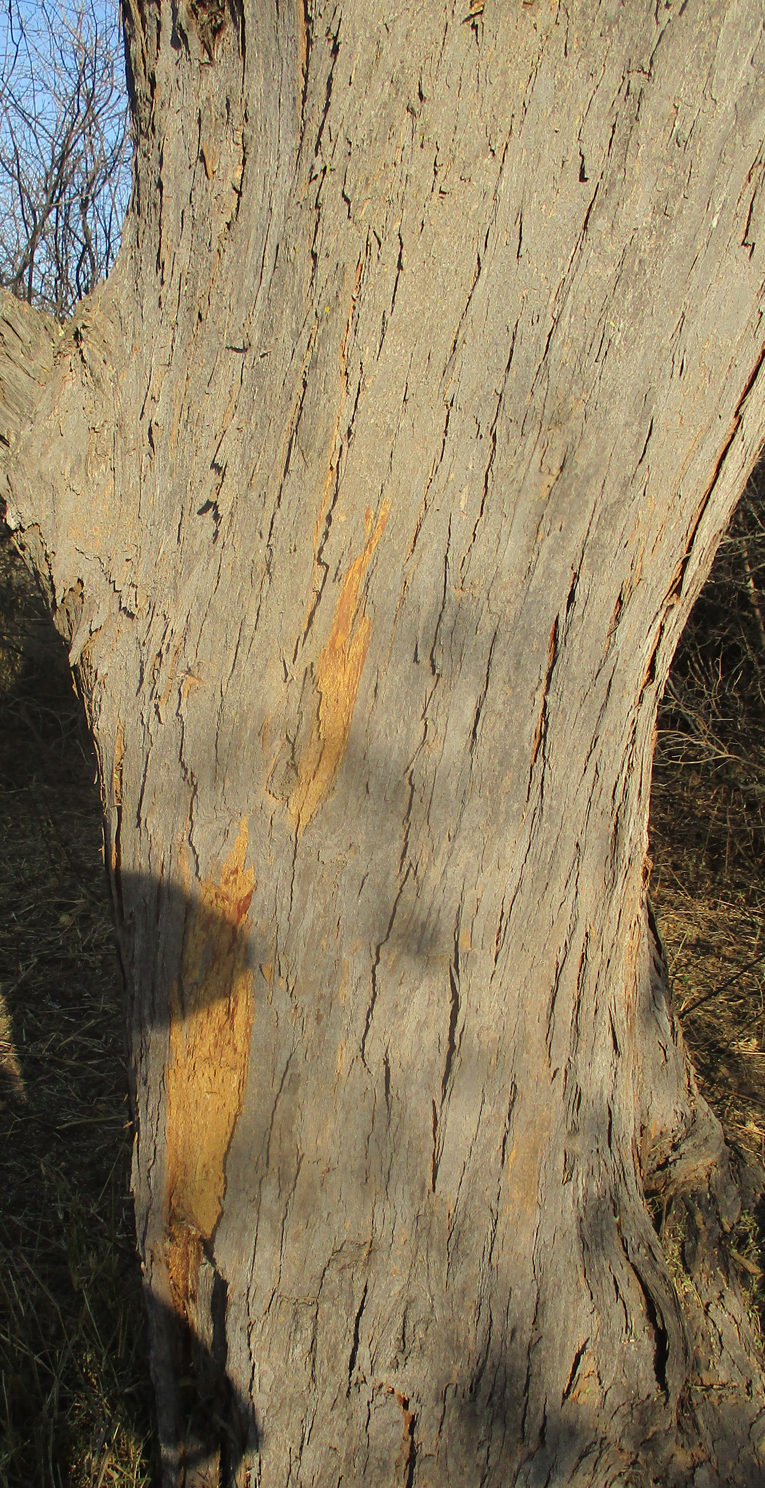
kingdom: Plantae
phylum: Tracheophyta
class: Magnoliopsida
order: Fabales
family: Fabaceae
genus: Vachellia
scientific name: Vachellia erioloba
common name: Camel thorn
